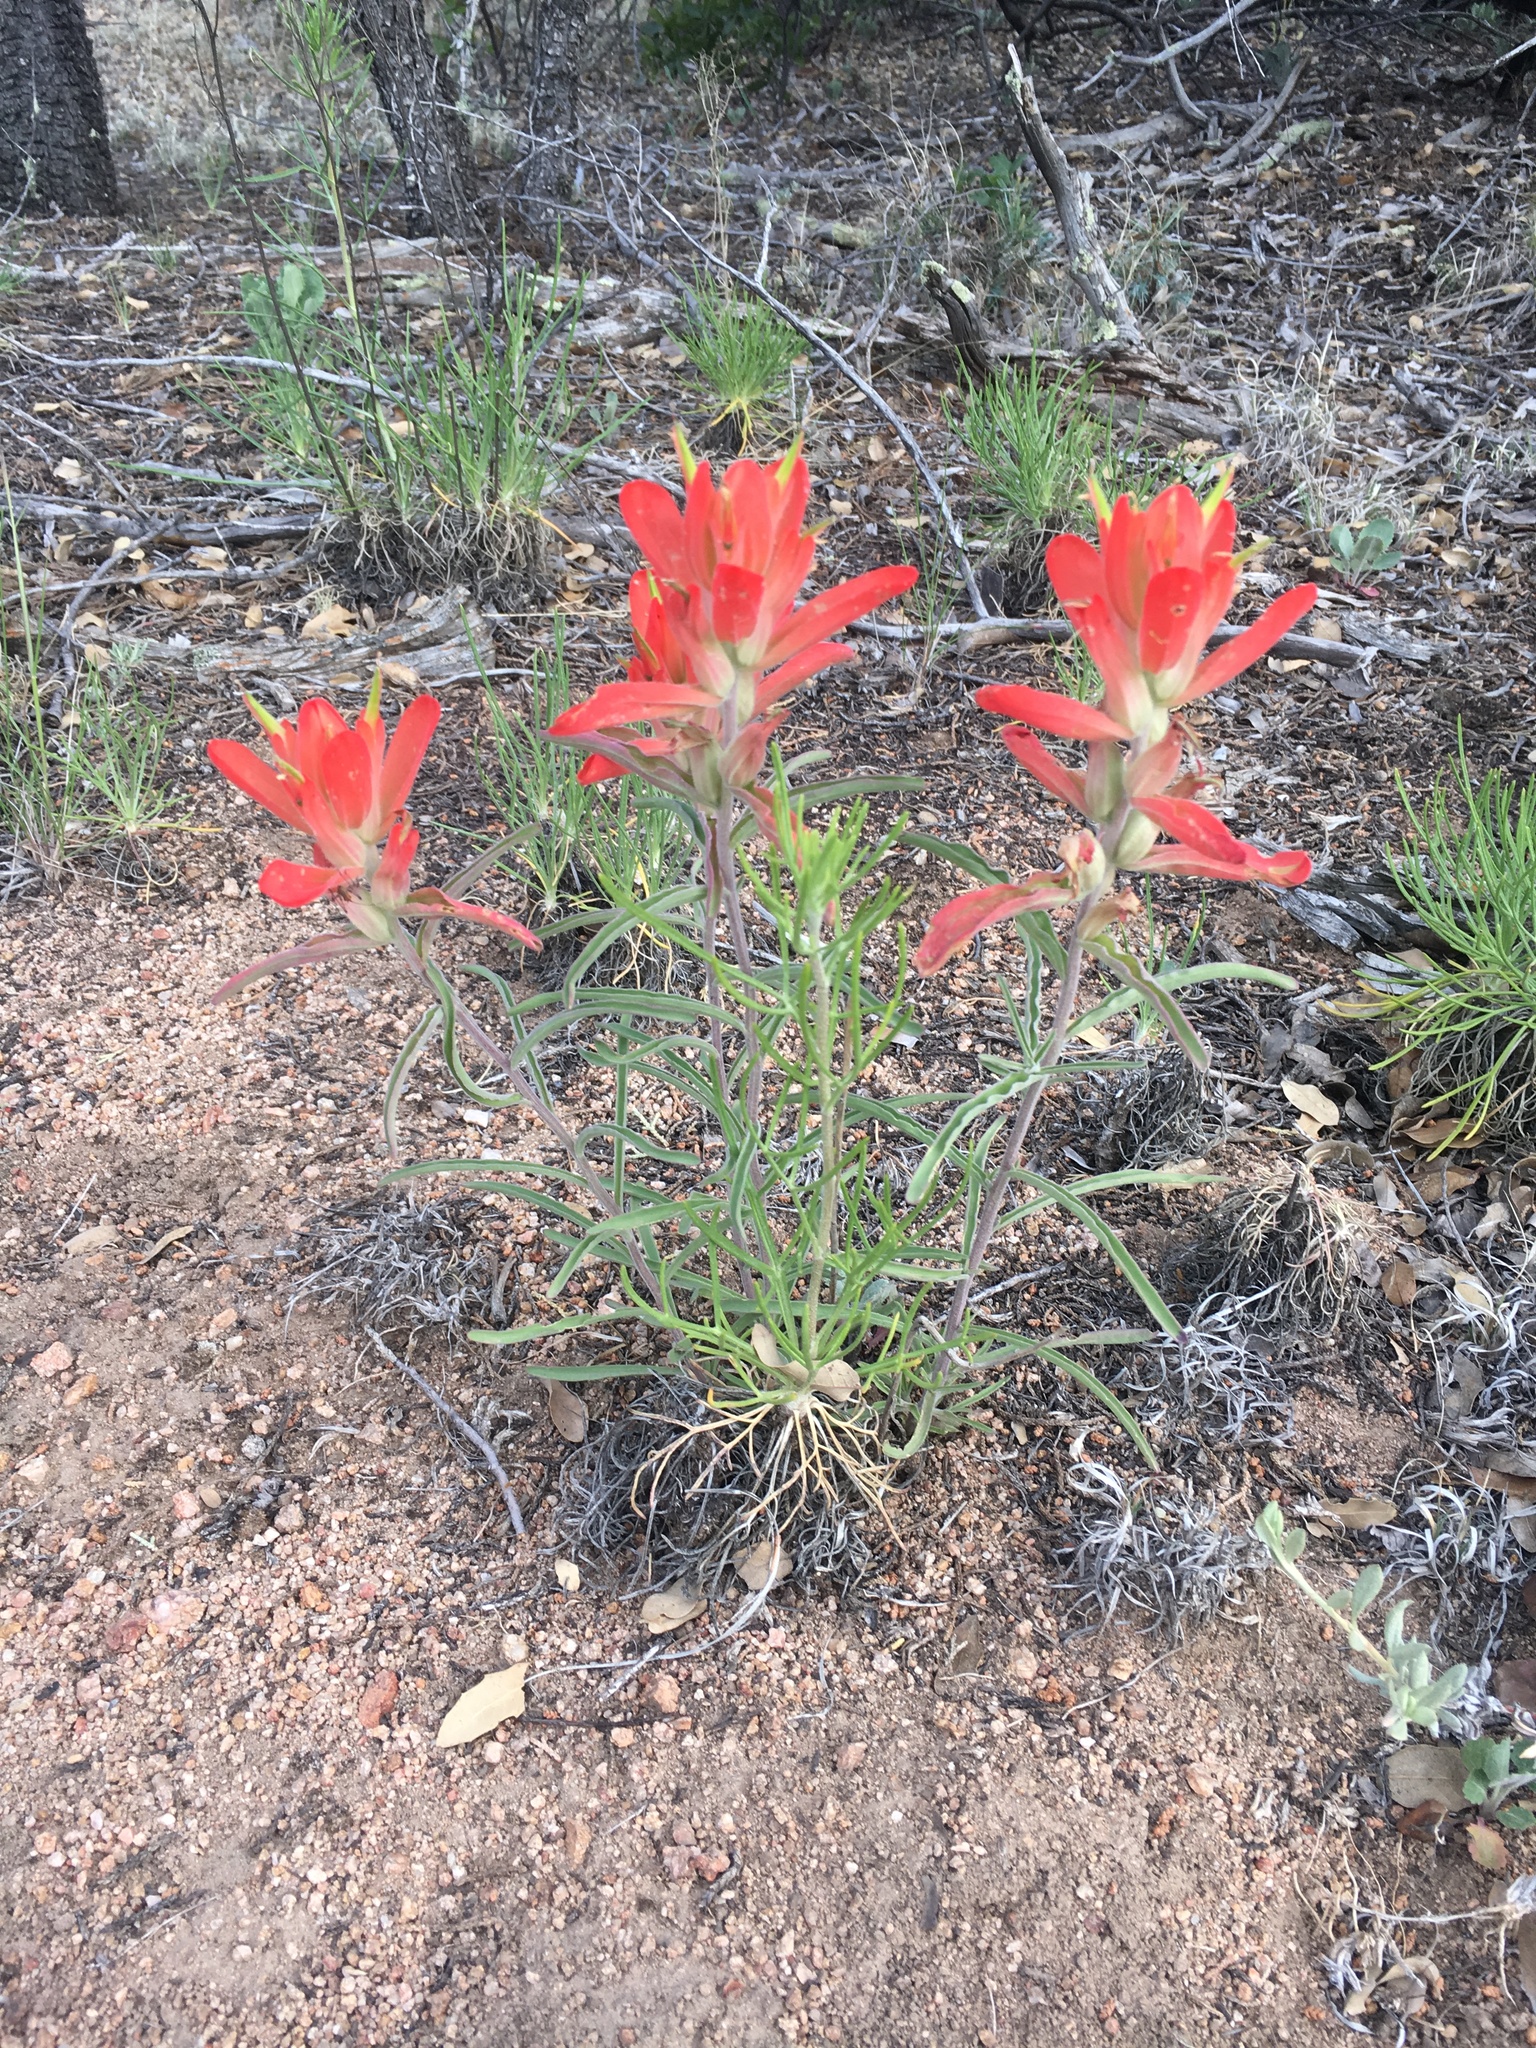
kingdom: Plantae
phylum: Tracheophyta
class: Magnoliopsida
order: Lamiales
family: Orobanchaceae
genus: Castilleja
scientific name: Castilleja integra
